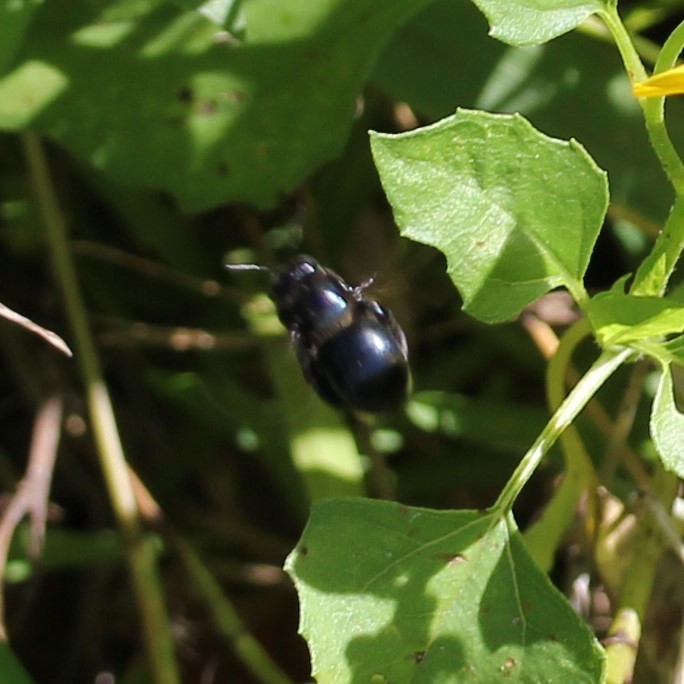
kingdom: Animalia
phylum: Arthropoda
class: Insecta
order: Hymenoptera
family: Apidae
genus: Xylocopa
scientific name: Xylocopa micans
